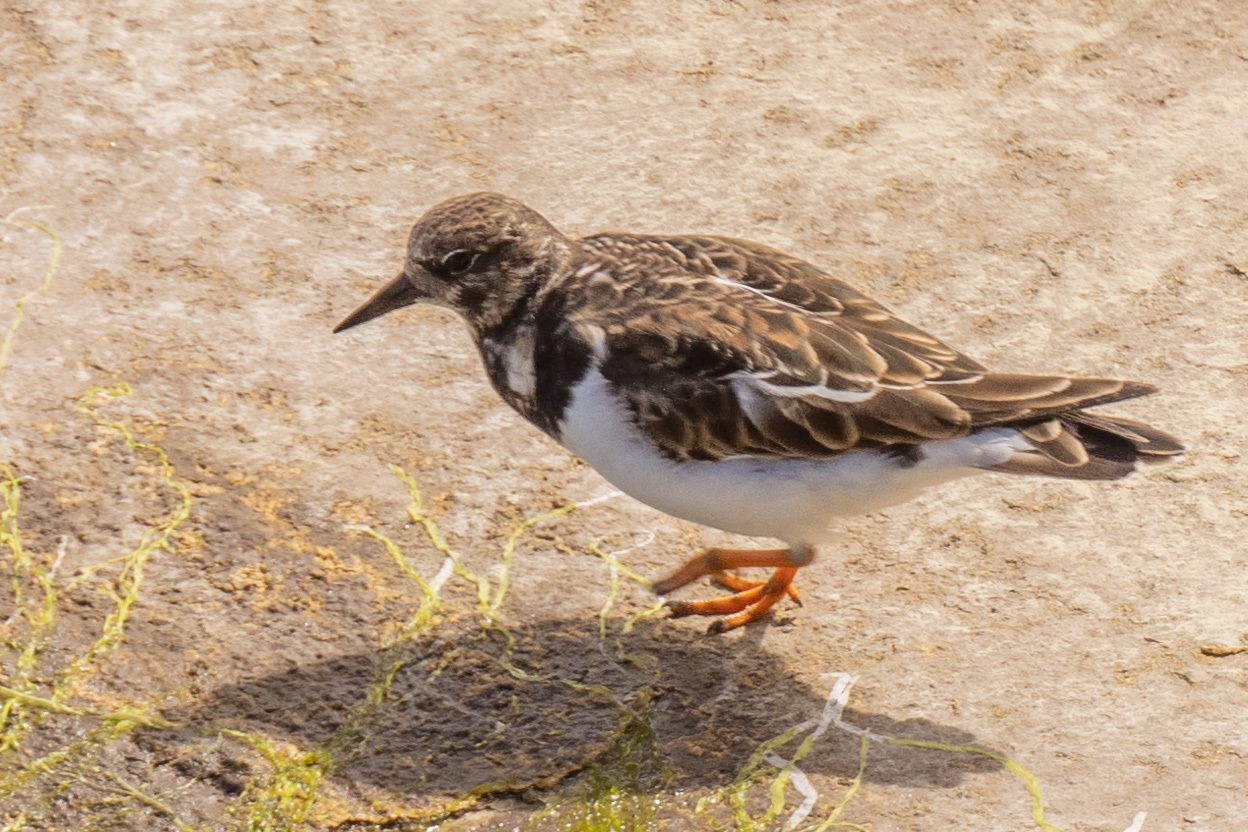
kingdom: Animalia
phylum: Chordata
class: Aves
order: Charadriiformes
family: Scolopacidae
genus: Arenaria
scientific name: Arenaria interpres
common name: Ruddy turnstone
